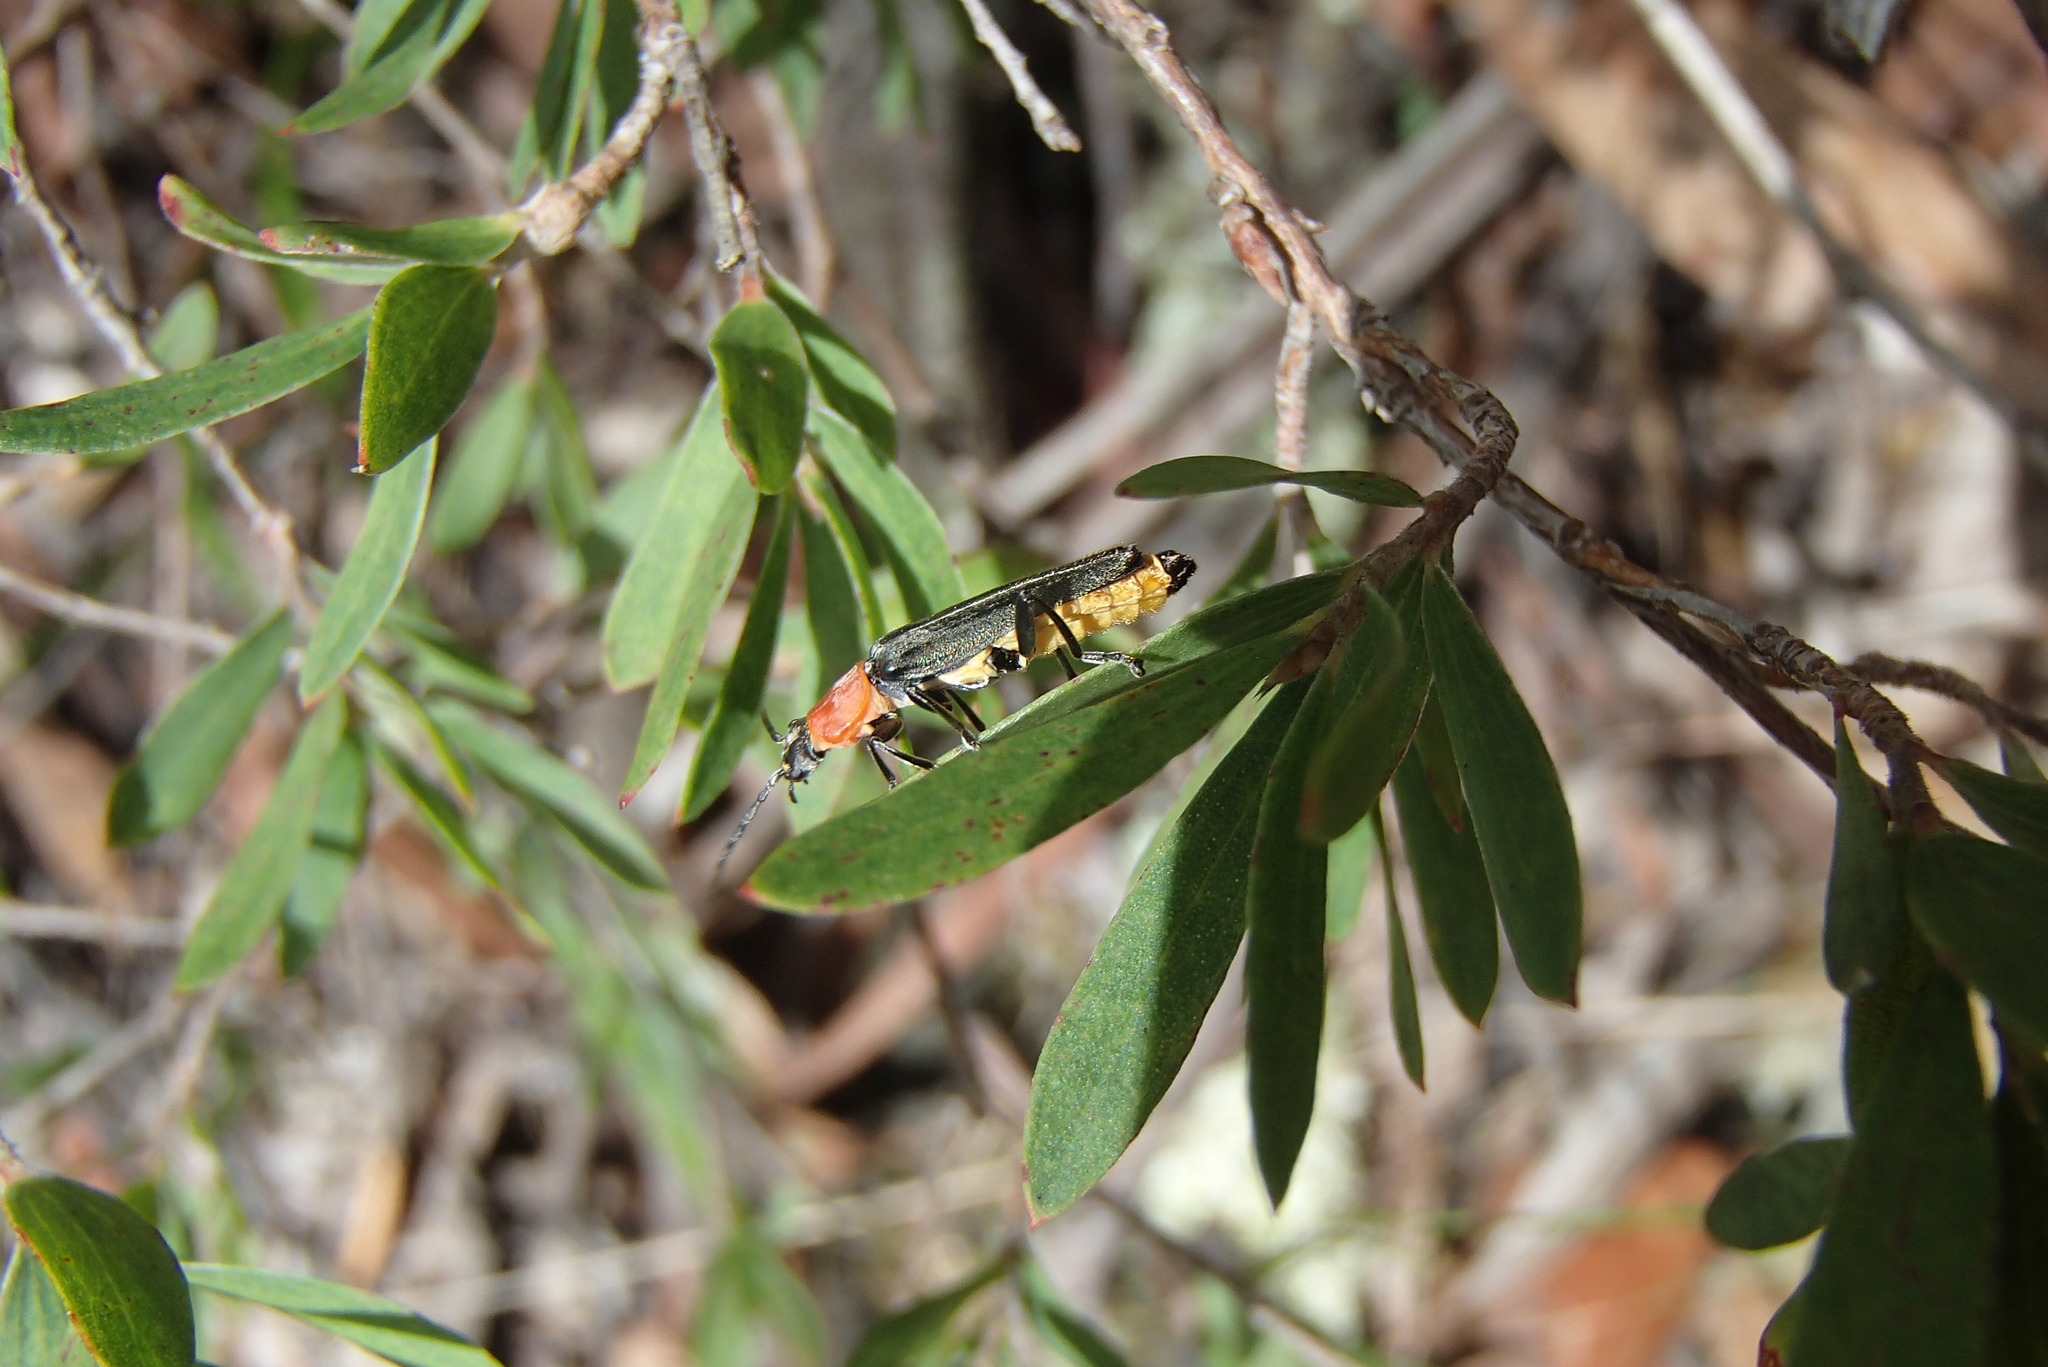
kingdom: Animalia
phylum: Arthropoda
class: Insecta
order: Coleoptera
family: Cantharidae
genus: Chauliognathus
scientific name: Chauliognathus
